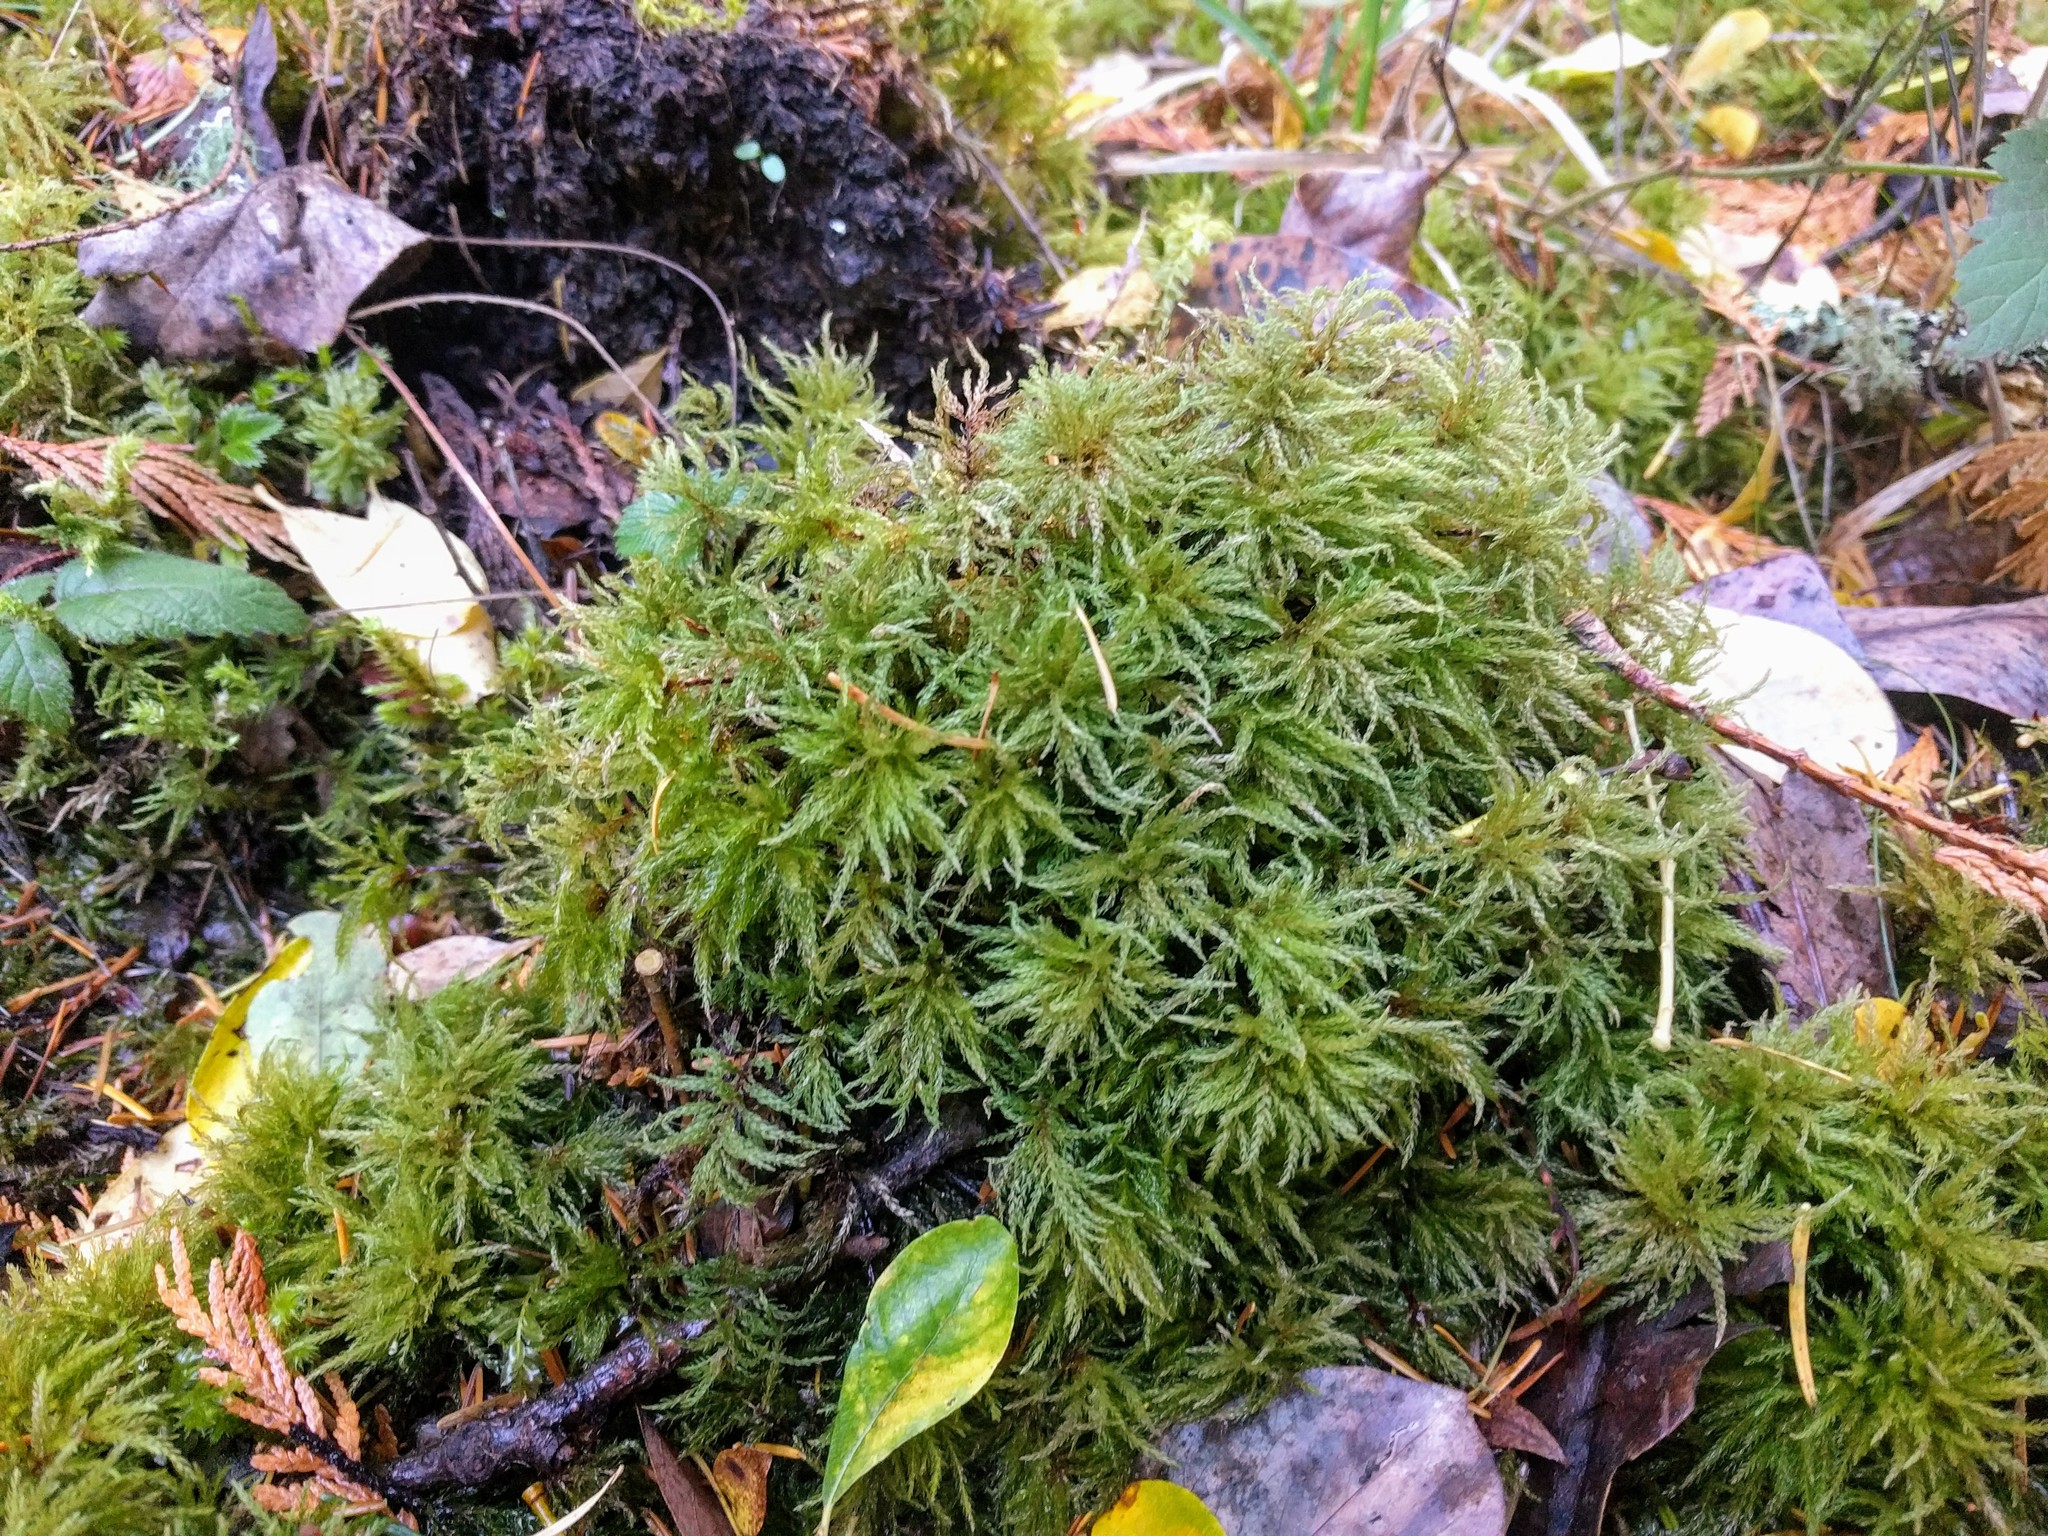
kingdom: Plantae
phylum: Bryophyta
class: Bryopsida
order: Bryales
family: Mniaceae
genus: Leucolepis
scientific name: Leucolepis acanthoneura
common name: Leucolepis umbrella moss
